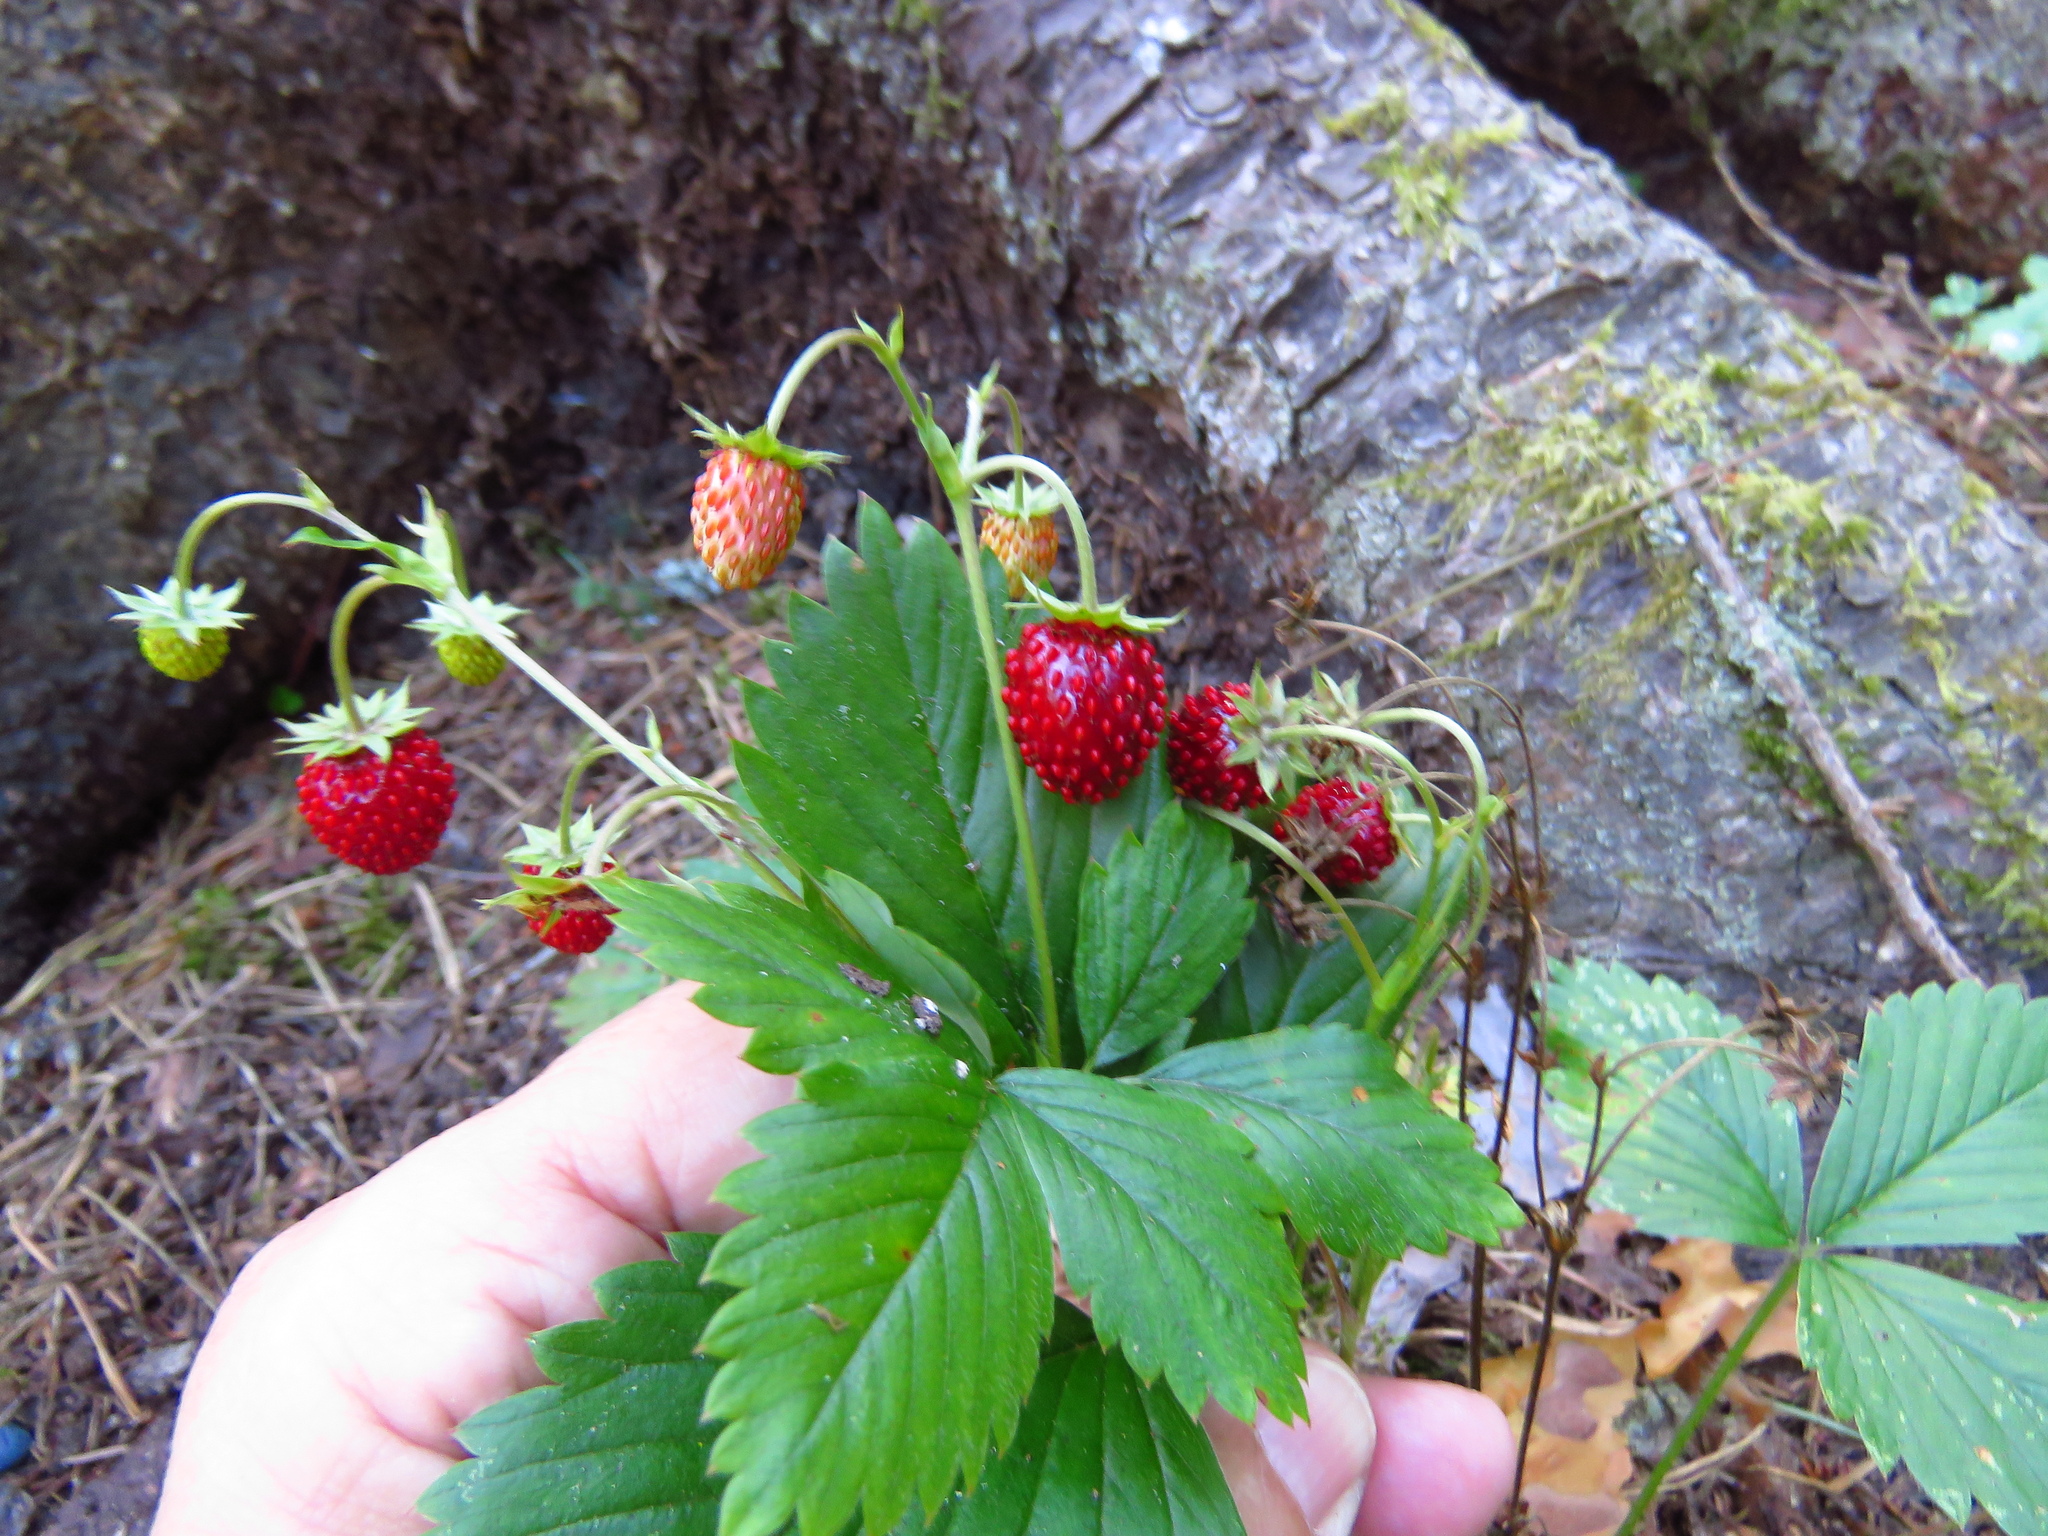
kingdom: Plantae
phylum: Tracheophyta
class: Magnoliopsida
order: Rosales
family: Rosaceae
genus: Fragaria
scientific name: Fragaria vesca
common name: Wild strawberry
